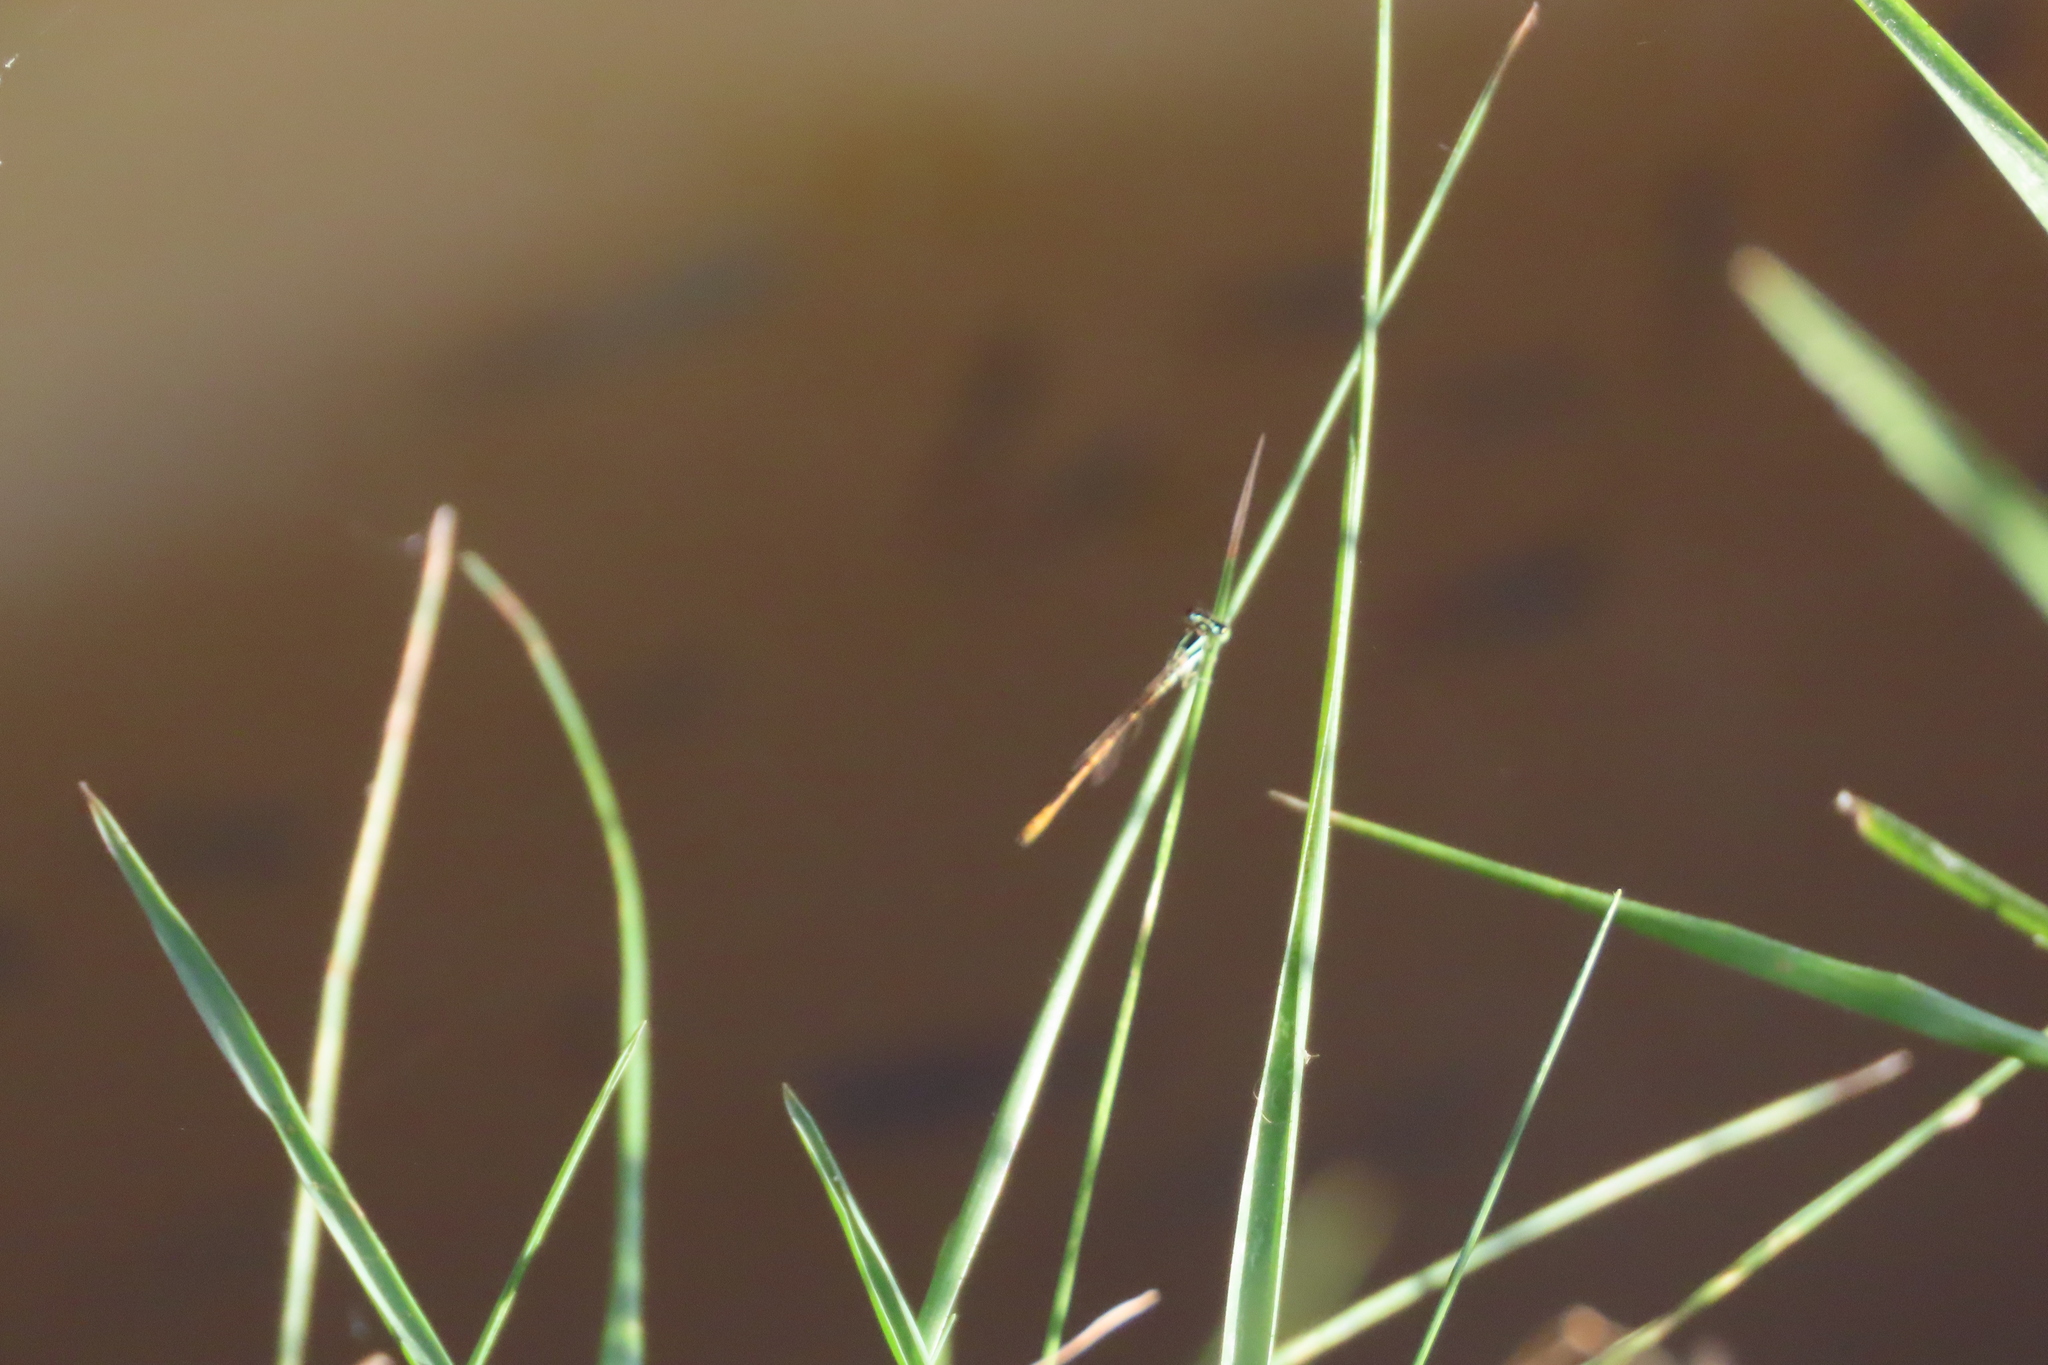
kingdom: Animalia
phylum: Arthropoda
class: Insecta
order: Odonata
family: Coenagrionidae
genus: Agriocnemis
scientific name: Agriocnemis keralensis
